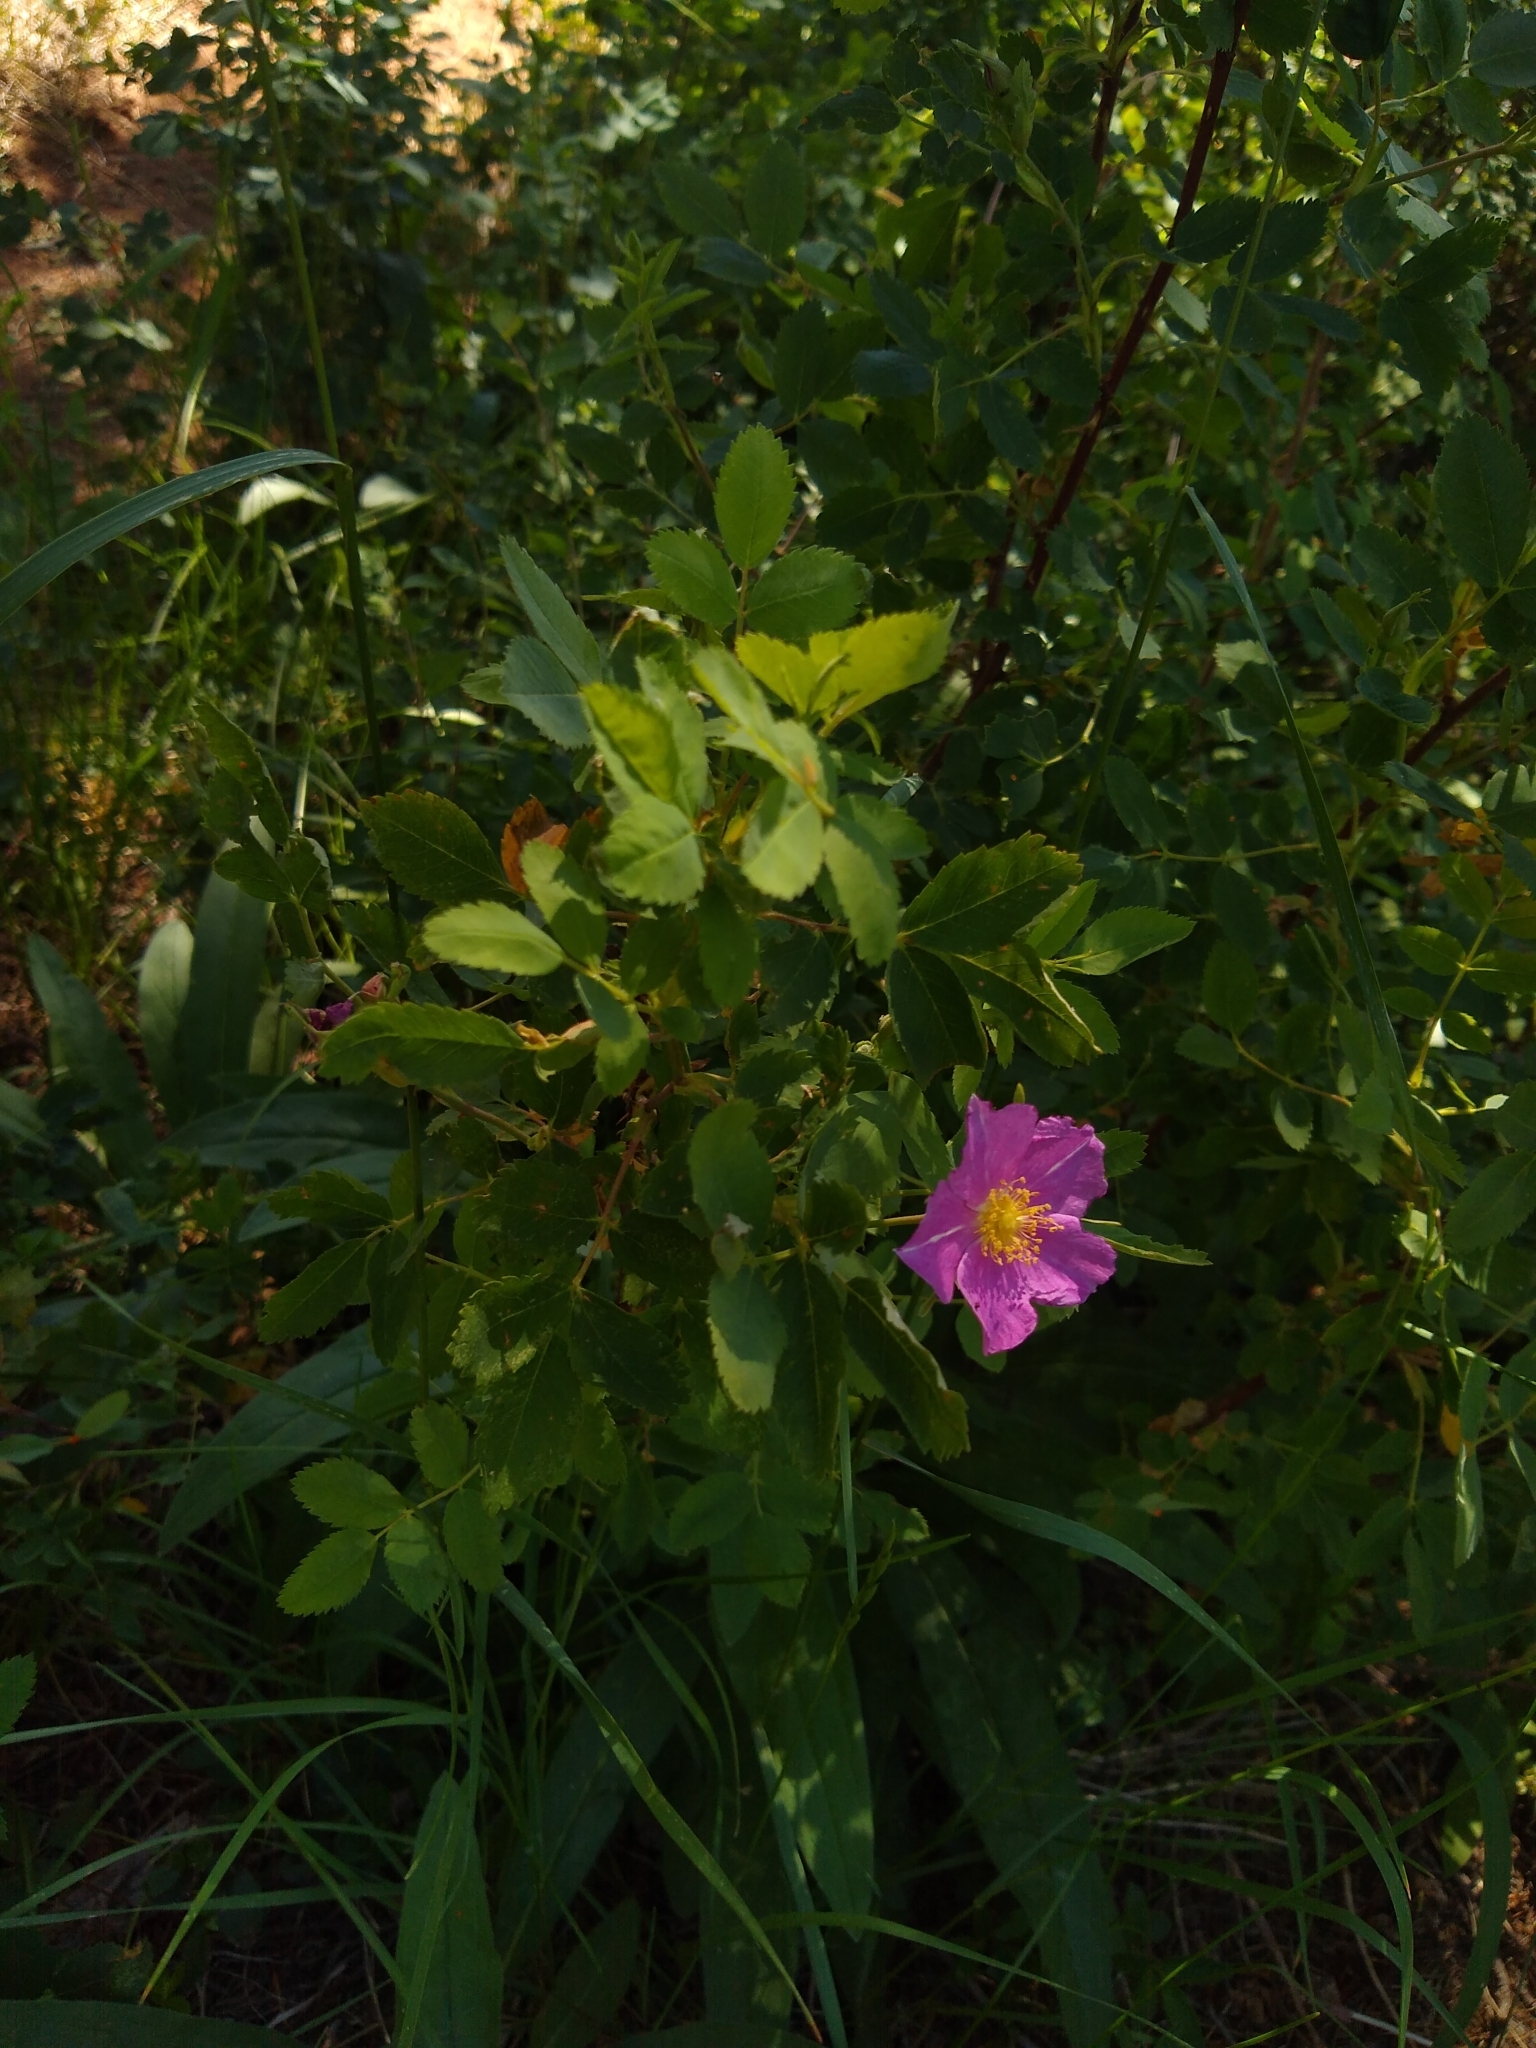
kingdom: Plantae
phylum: Tracheophyta
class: Magnoliopsida
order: Rosales
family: Rosaceae
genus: Rosa
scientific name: Rosa woodsii
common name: Woods's rose
